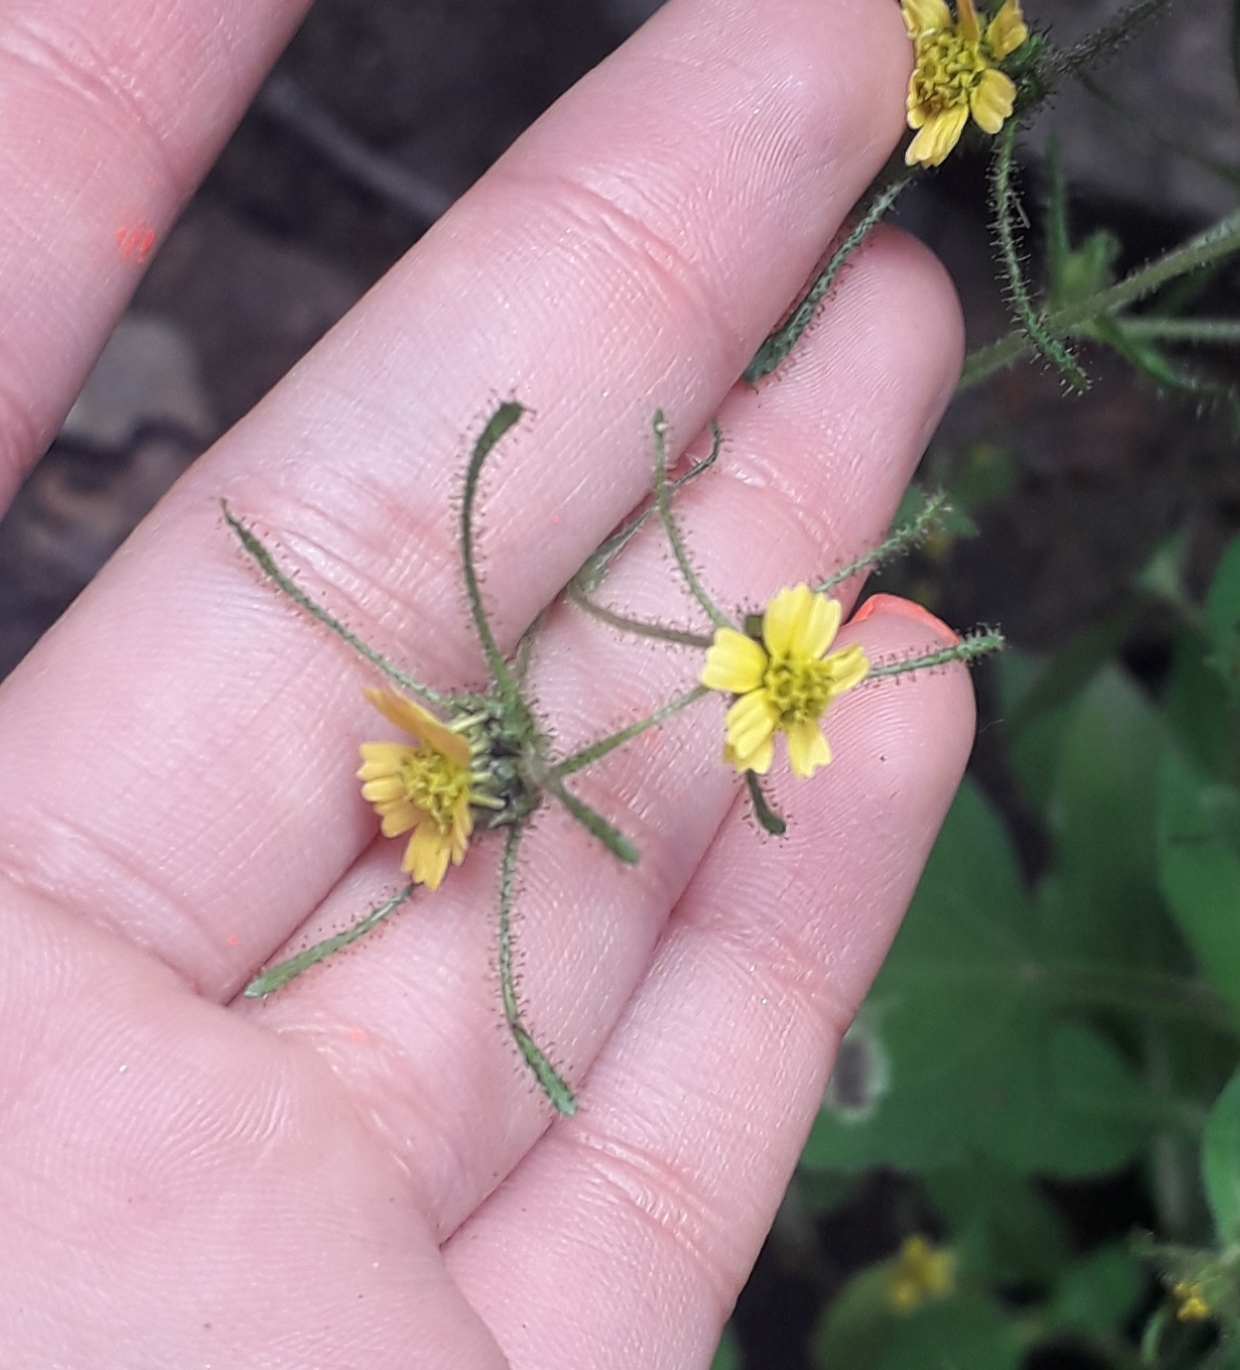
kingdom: Plantae
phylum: Tracheophyta
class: Magnoliopsida
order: Asterales
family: Asteraceae
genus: Sigesbeckia
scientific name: Sigesbeckia jorullensis
